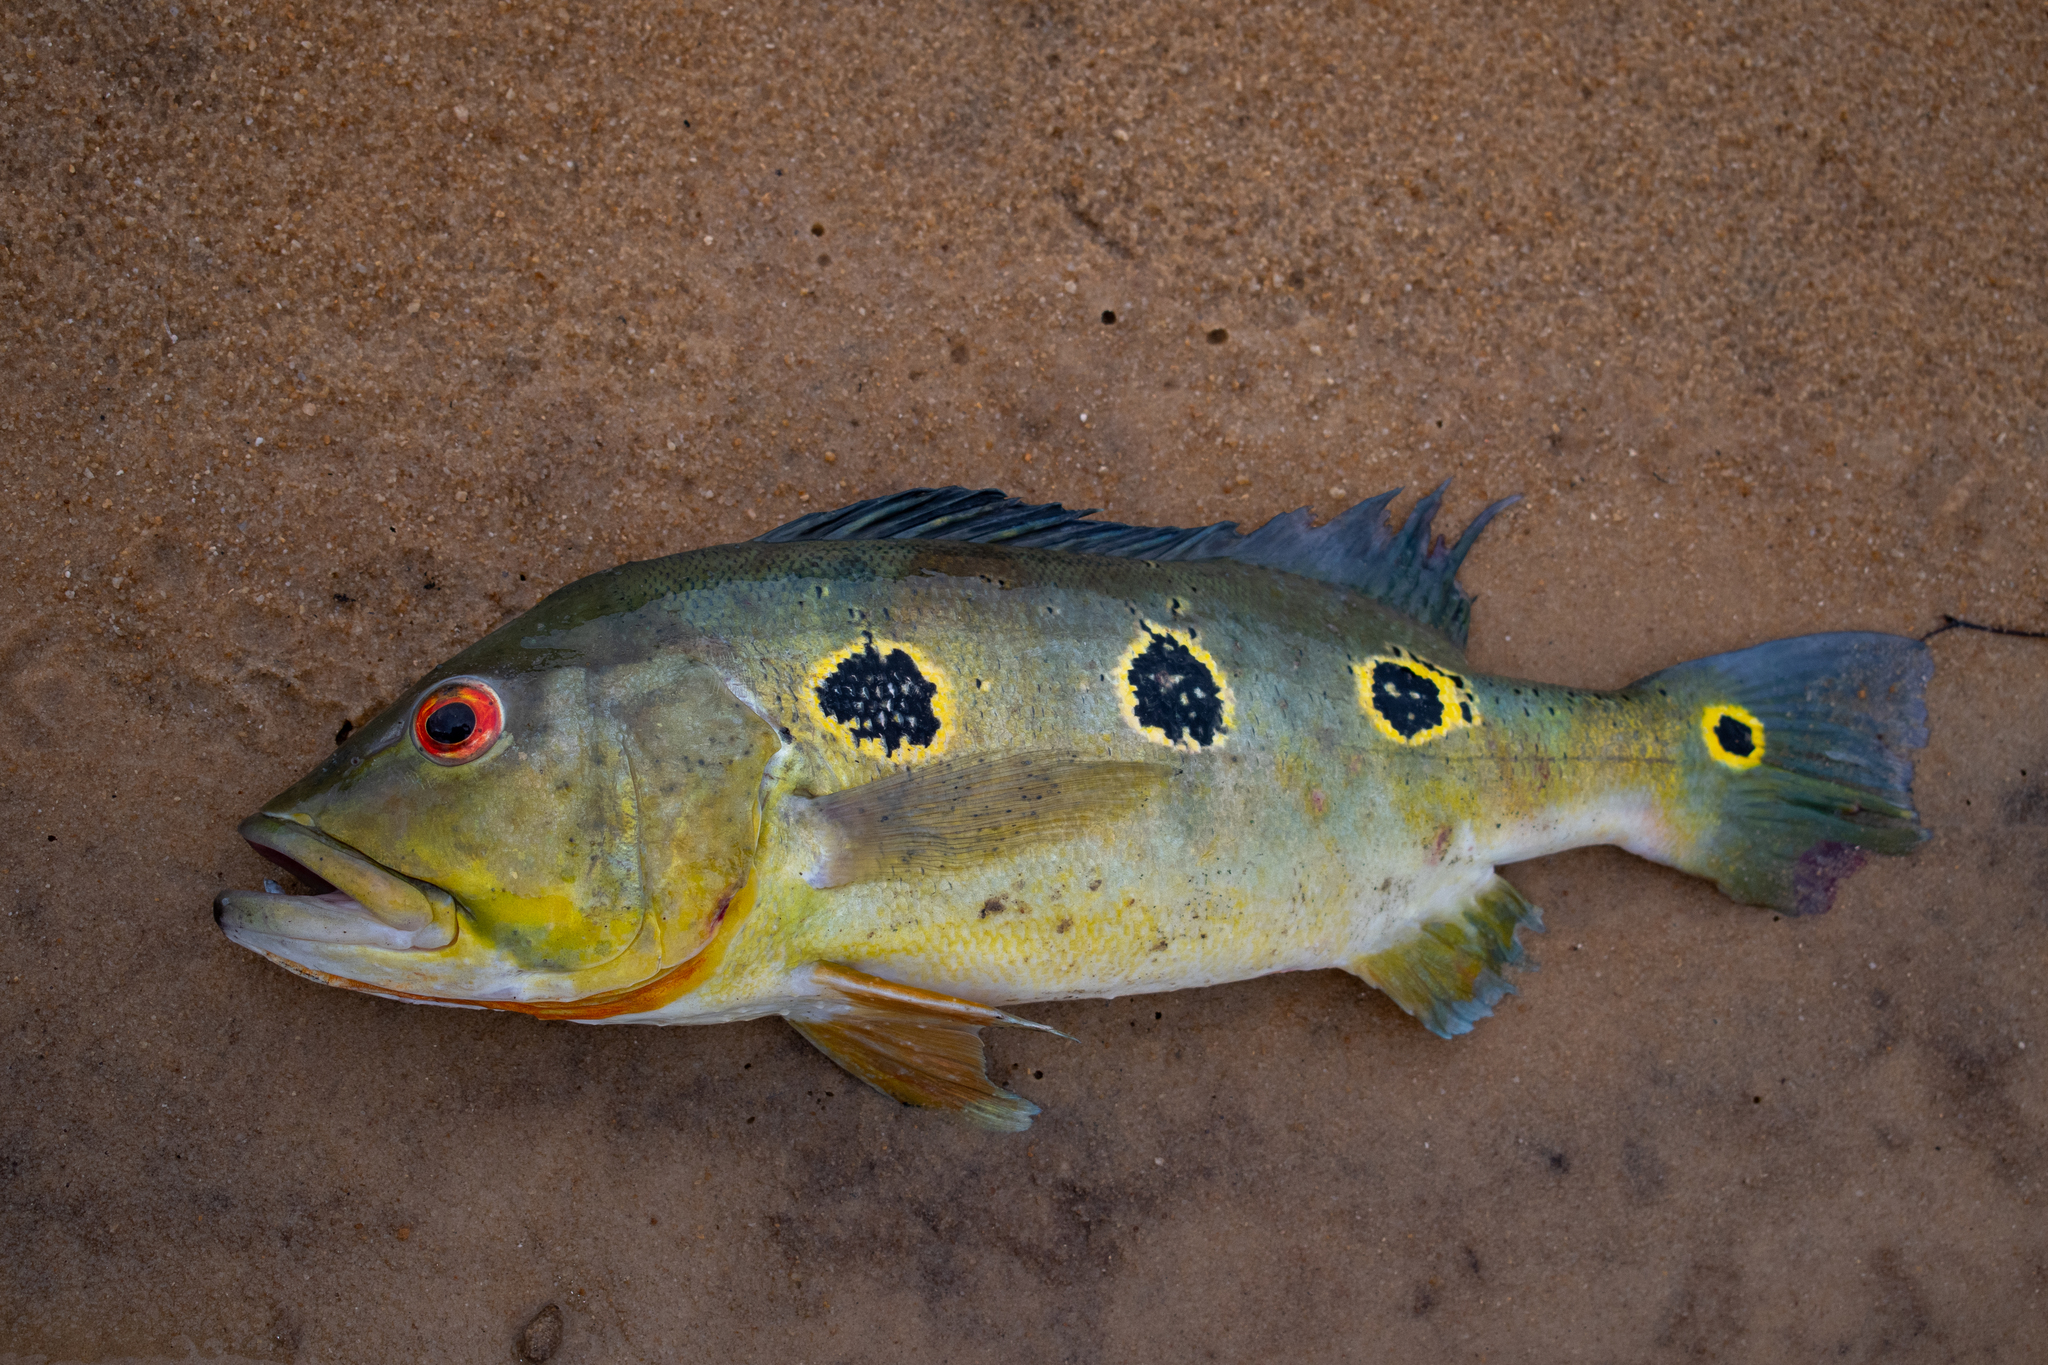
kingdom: Animalia
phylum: Chordata
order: Perciformes
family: Cichlidae
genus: Cichla
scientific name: Cichla orinocensis
